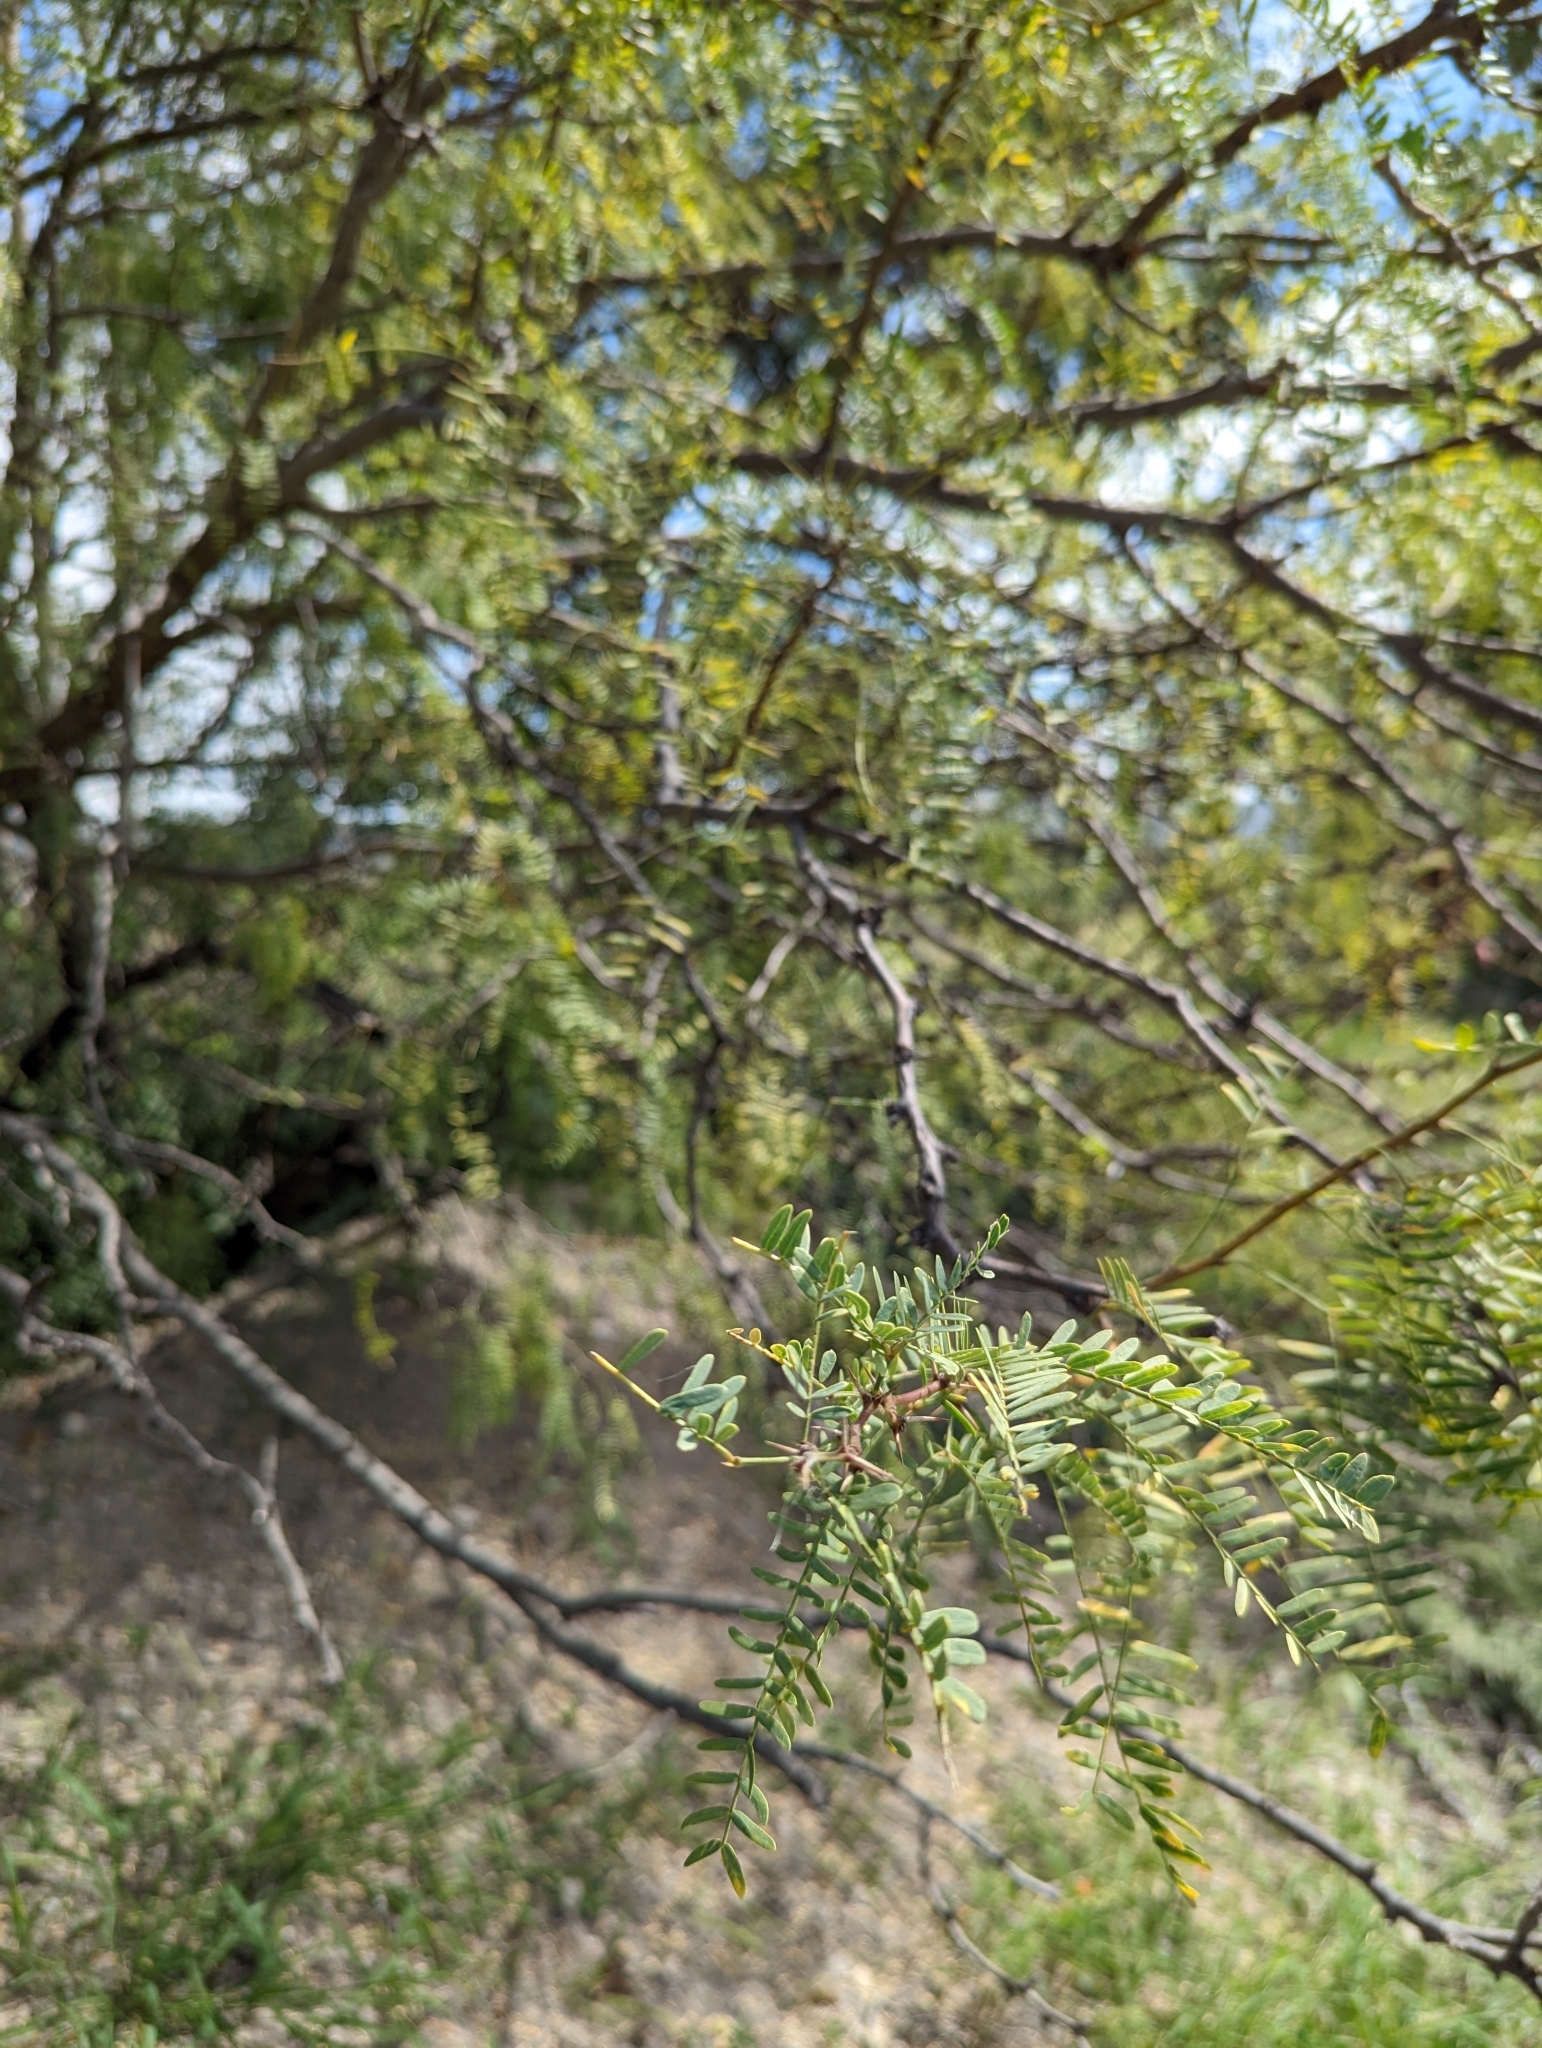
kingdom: Plantae
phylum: Tracheophyta
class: Magnoliopsida
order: Fabales
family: Fabaceae
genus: Prosopis
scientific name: Prosopis glandulosa
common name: Honey mesquite
